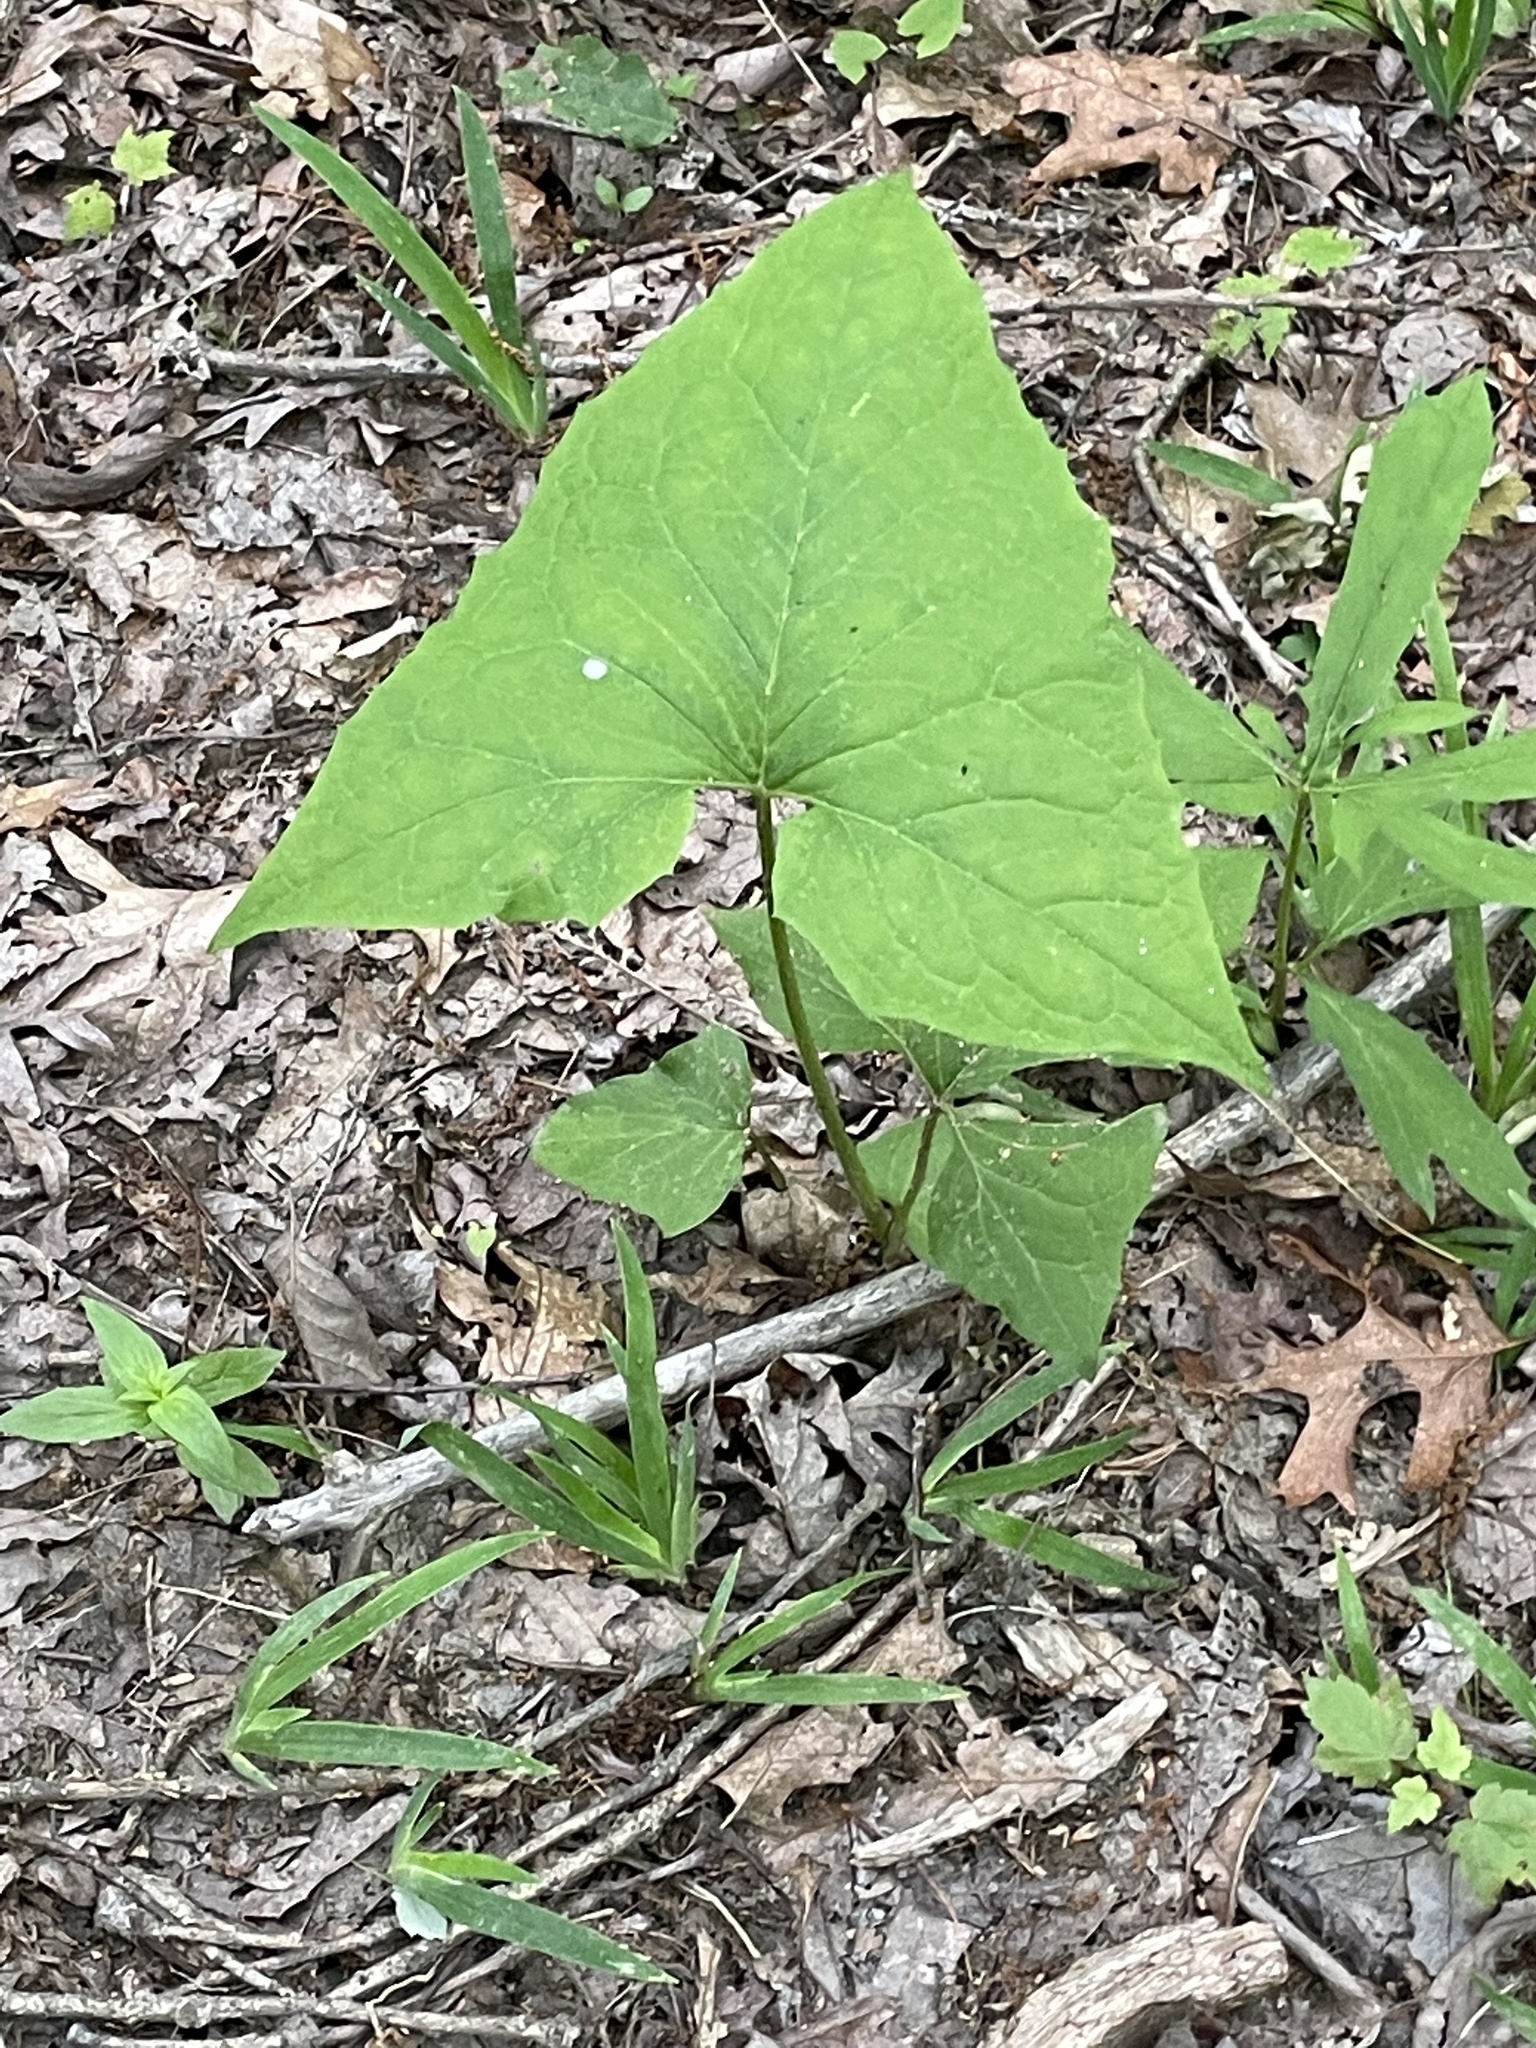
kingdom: Plantae
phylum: Tracheophyta
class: Magnoliopsida
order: Asterales
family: Asteraceae
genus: Nabalus
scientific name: Nabalus altissima
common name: Tall rattlesnakeroot
